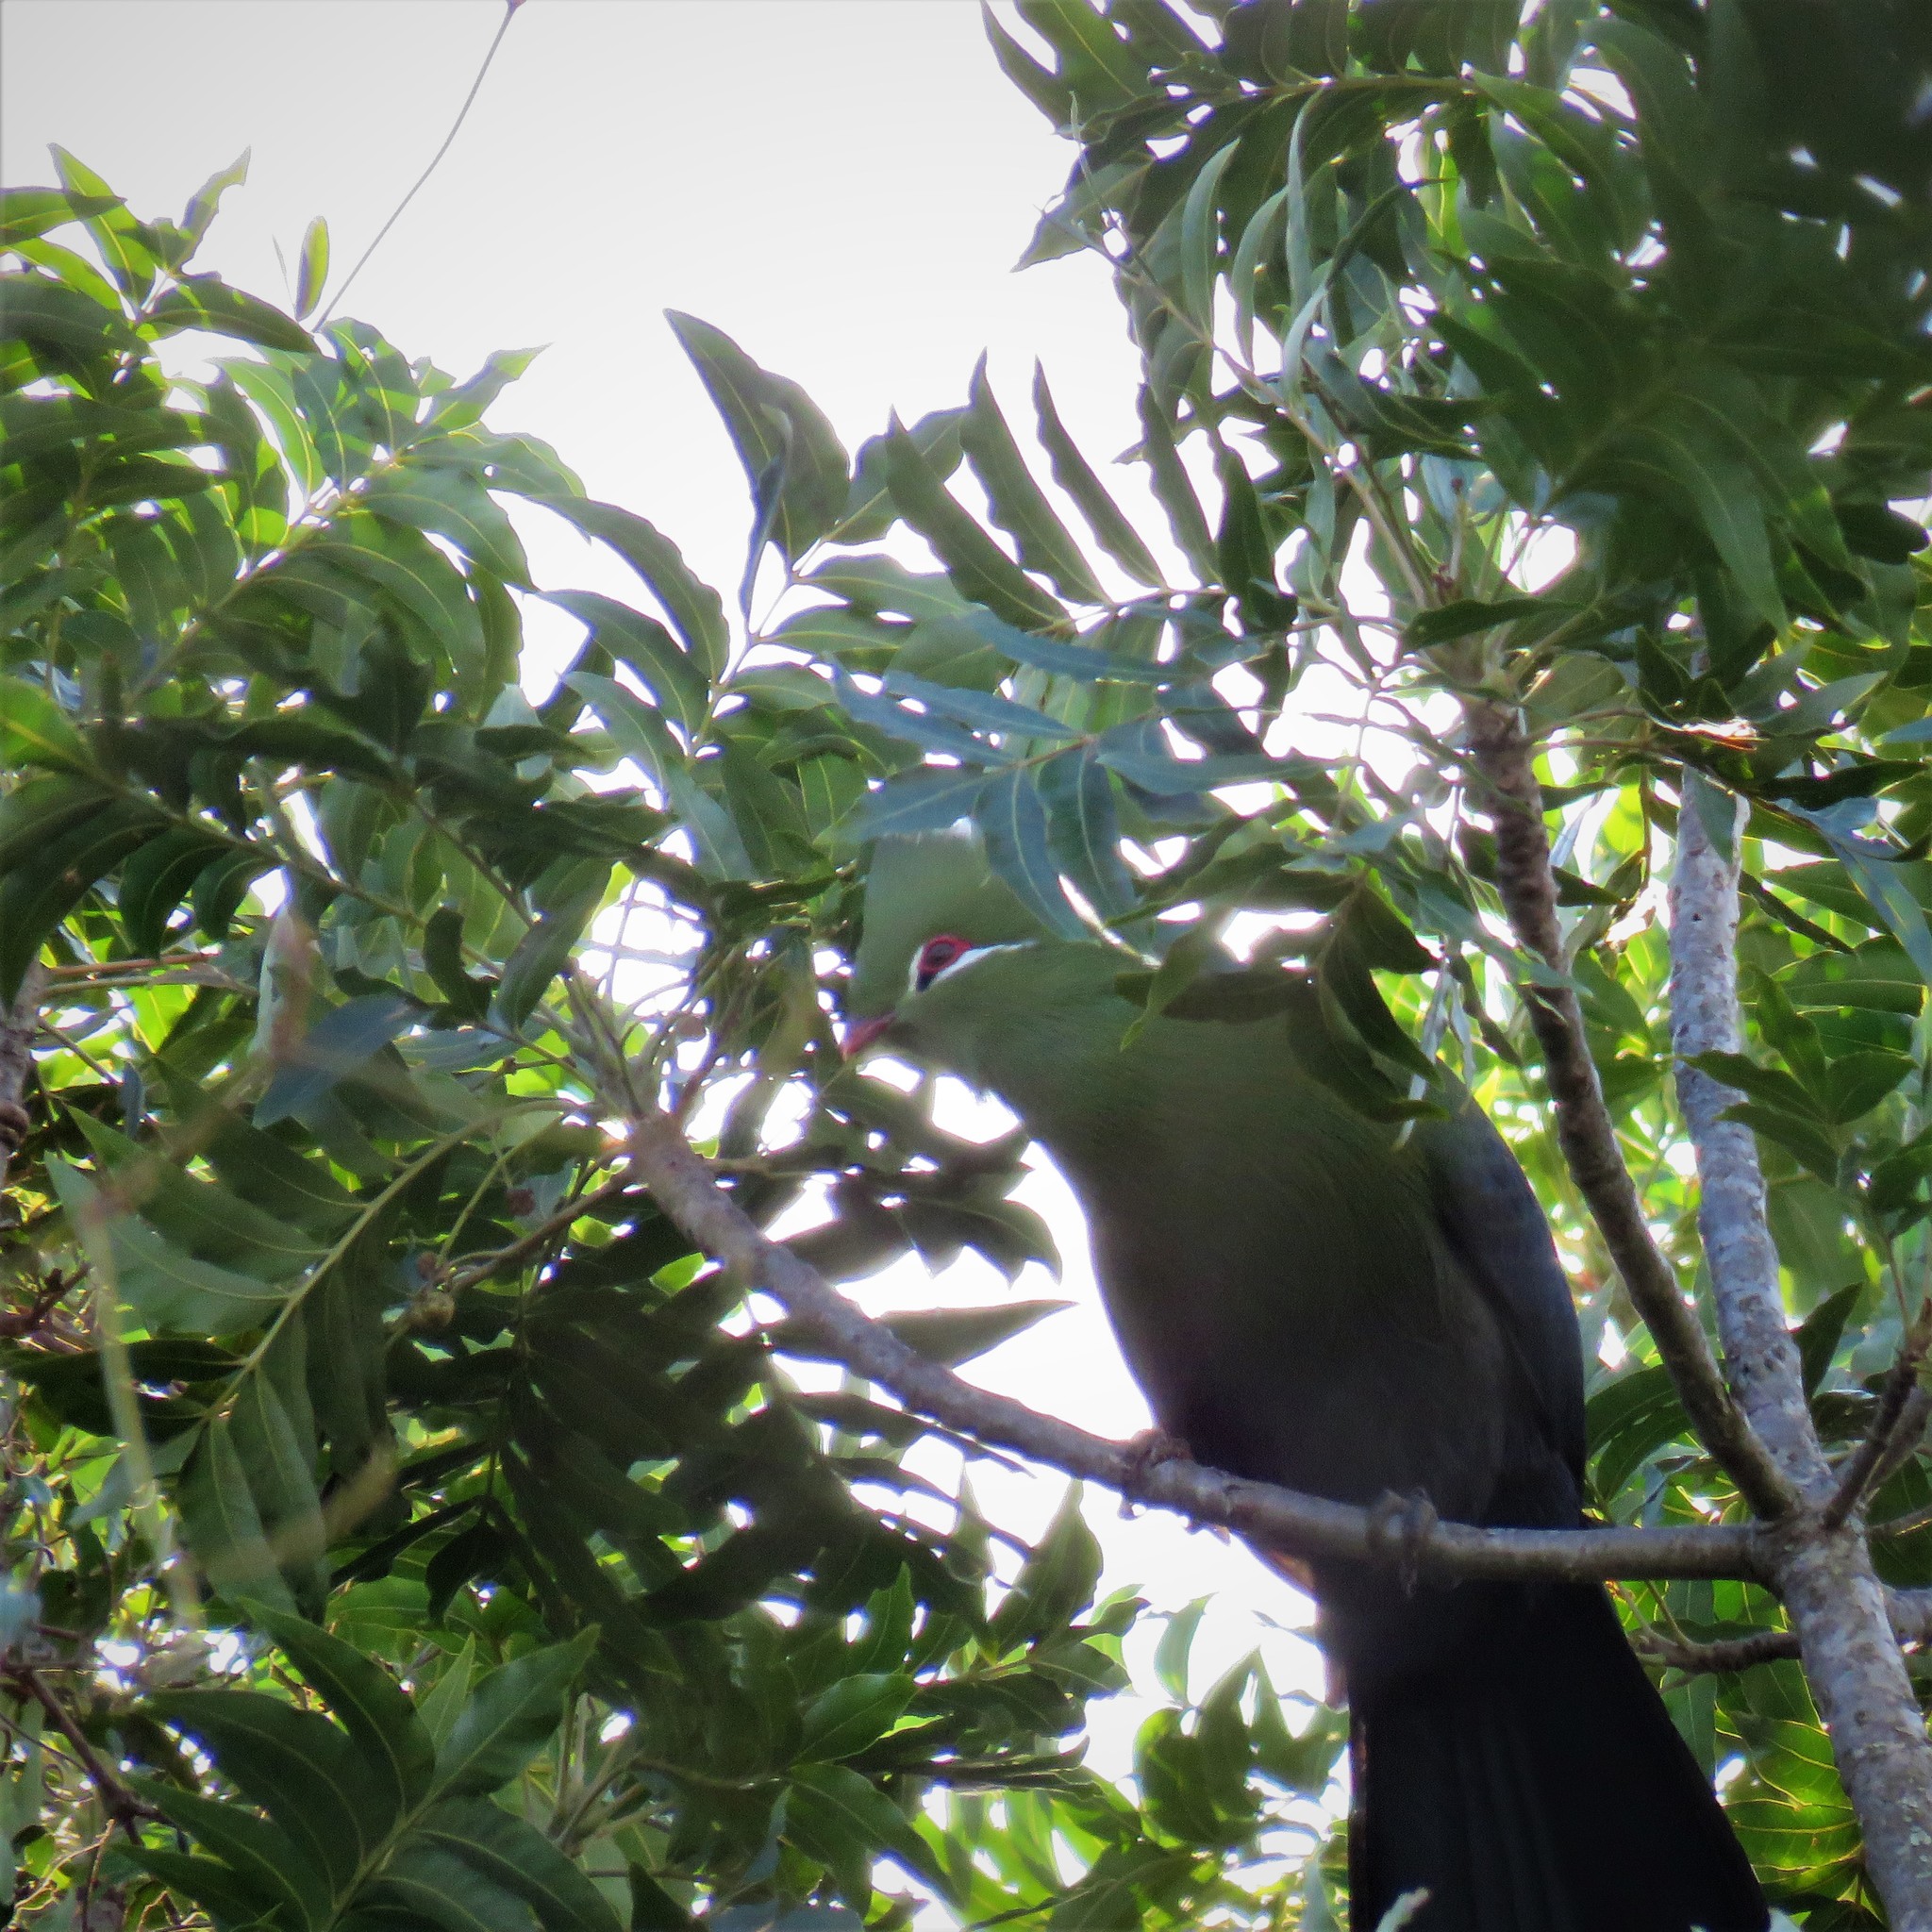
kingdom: Animalia
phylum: Chordata
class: Aves
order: Musophagiformes
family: Musophagidae
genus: Tauraco
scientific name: Tauraco corythaix
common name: Knysna turaco
